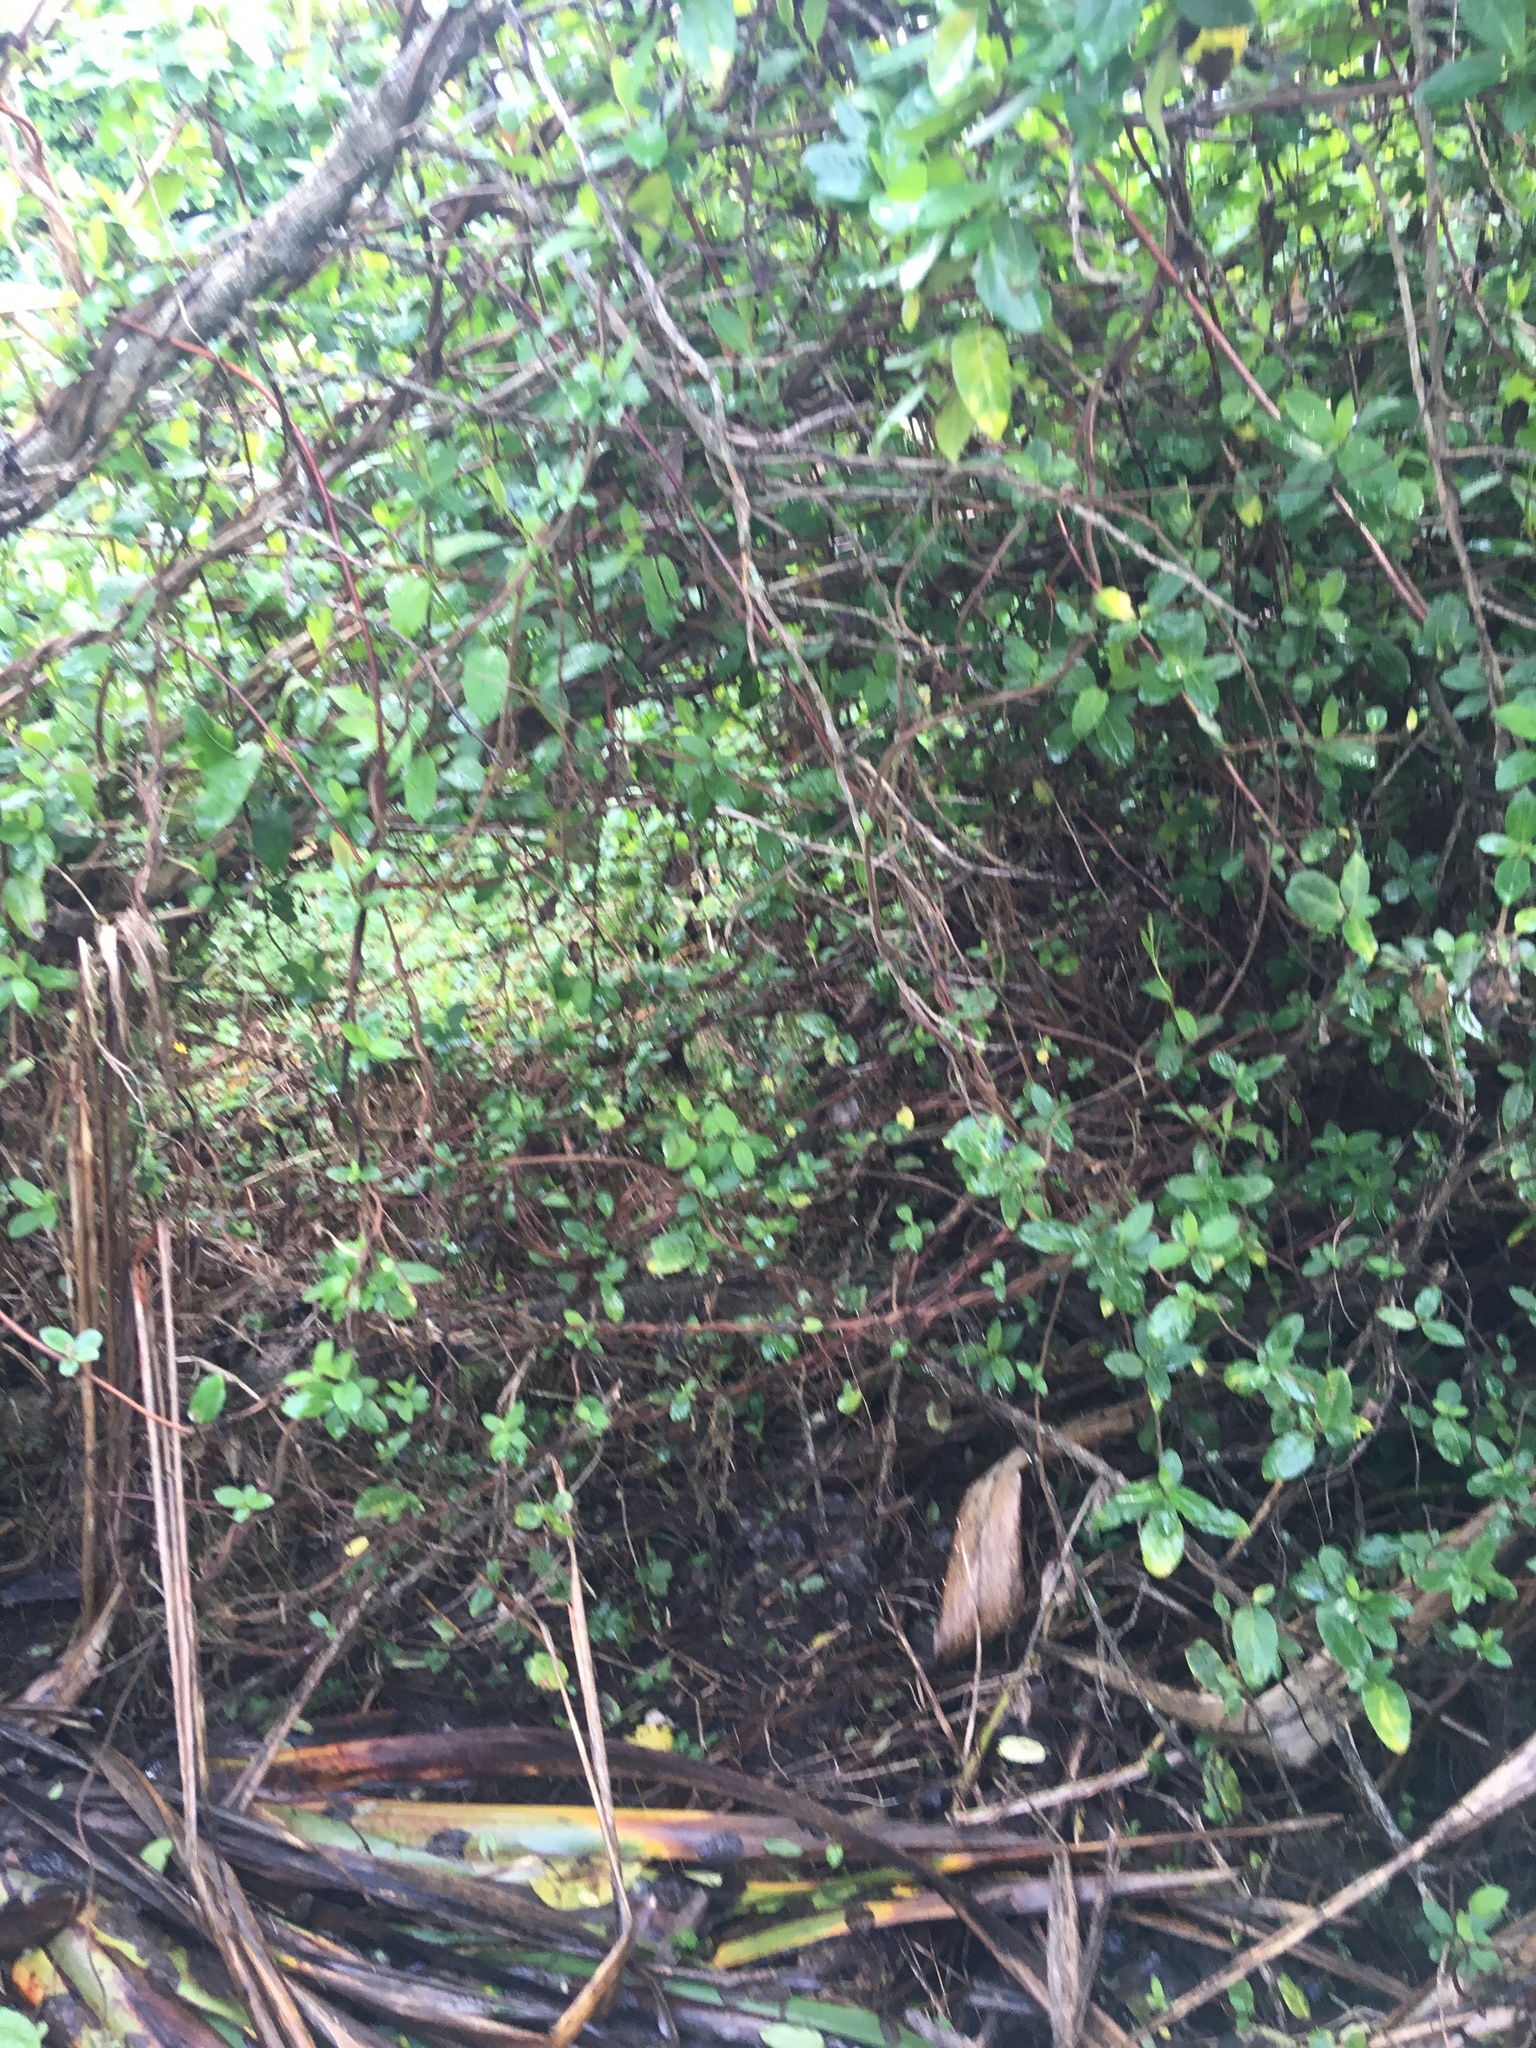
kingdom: Plantae
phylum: Tracheophyta
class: Magnoliopsida
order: Dipsacales
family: Caprifoliaceae
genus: Lonicera
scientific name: Lonicera japonica
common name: Japanese honeysuckle
